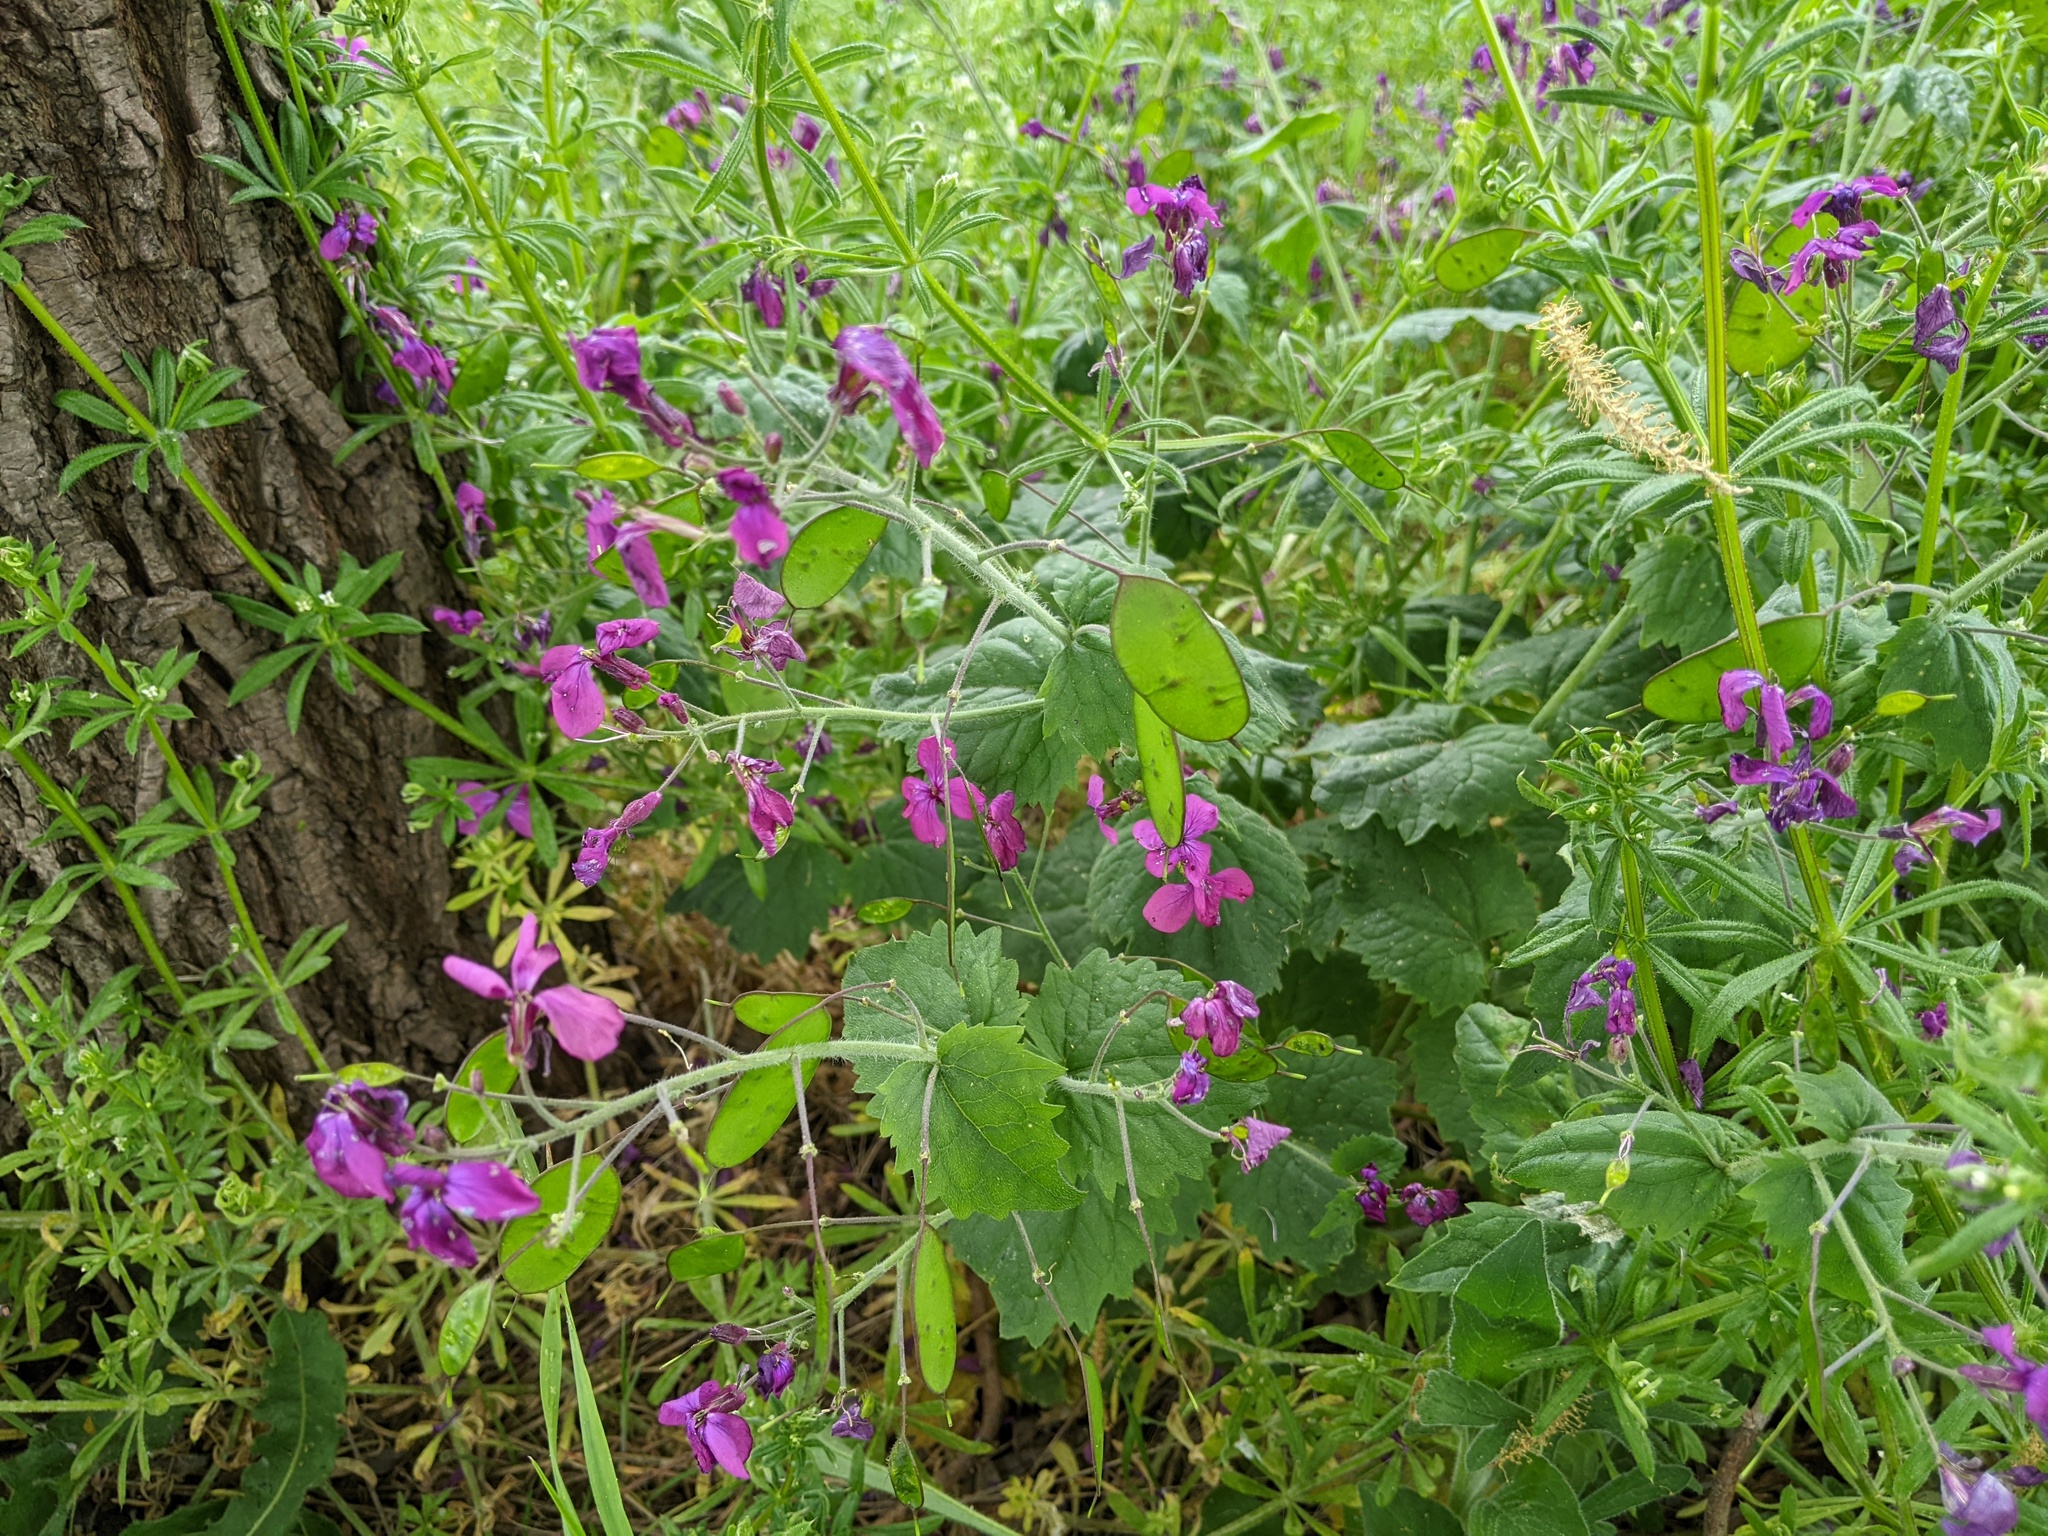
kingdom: Plantae
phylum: Tracheophyta
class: Magnoliopsida
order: Brassicales
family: Brassicaceae
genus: Lunaria
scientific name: Lunaria annua
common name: Honesty
